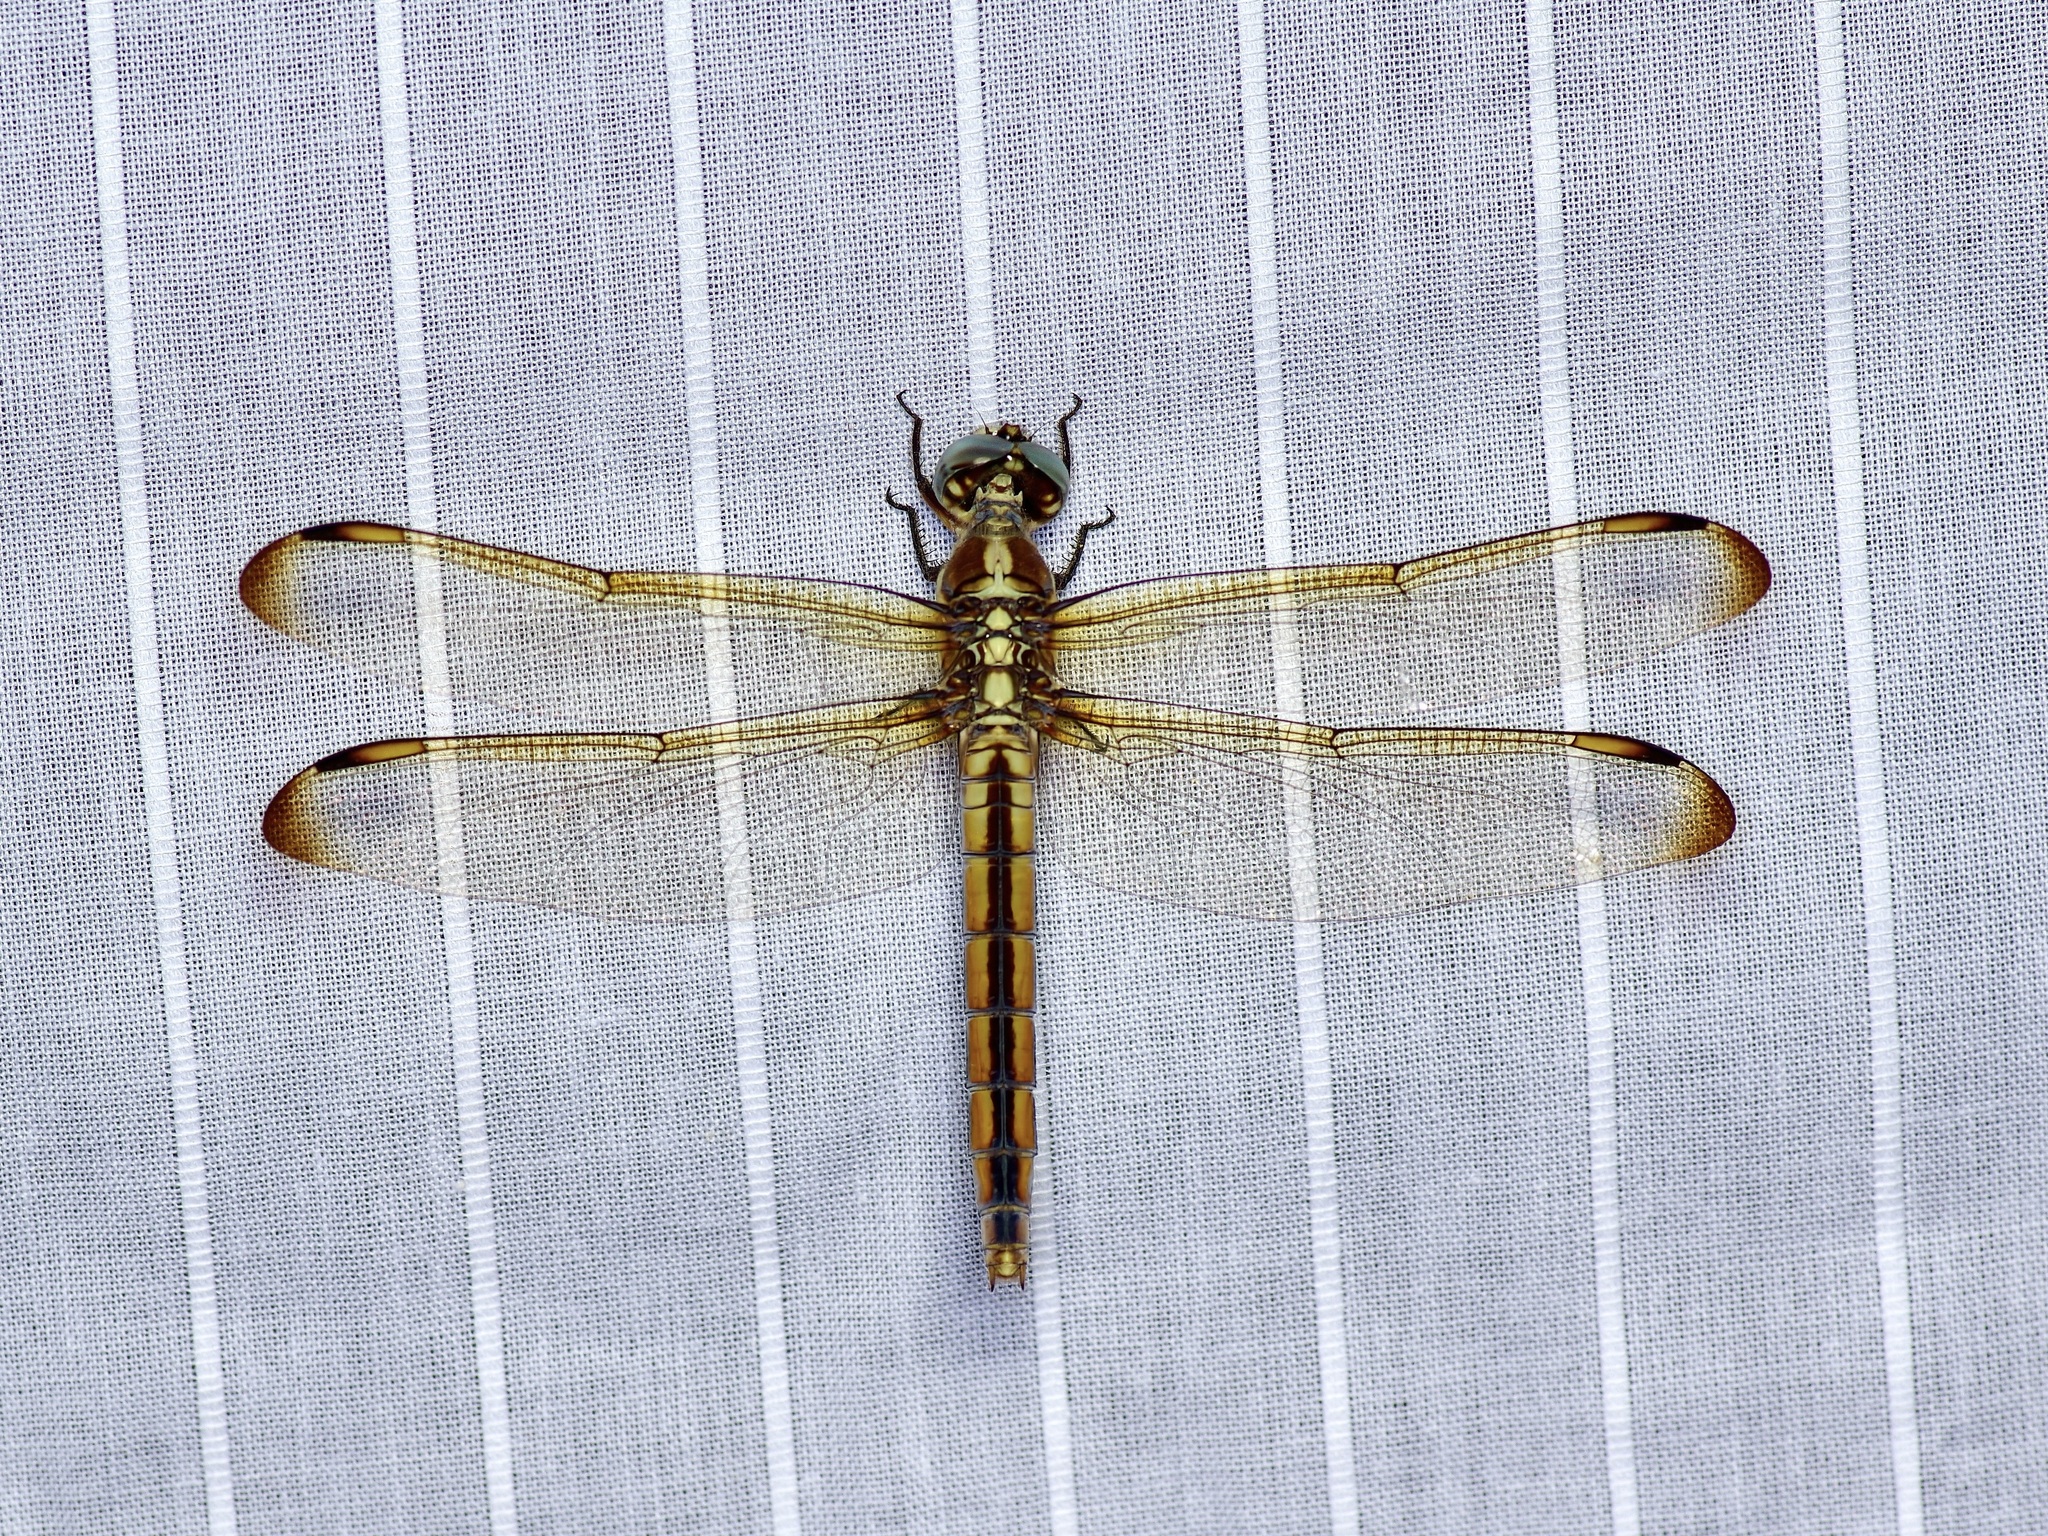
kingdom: Animalia
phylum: Arthropoda
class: Insecta
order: Odonata
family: Libellulidae
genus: Libellula
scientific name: Libellula comanche
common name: Comanche skimmer
